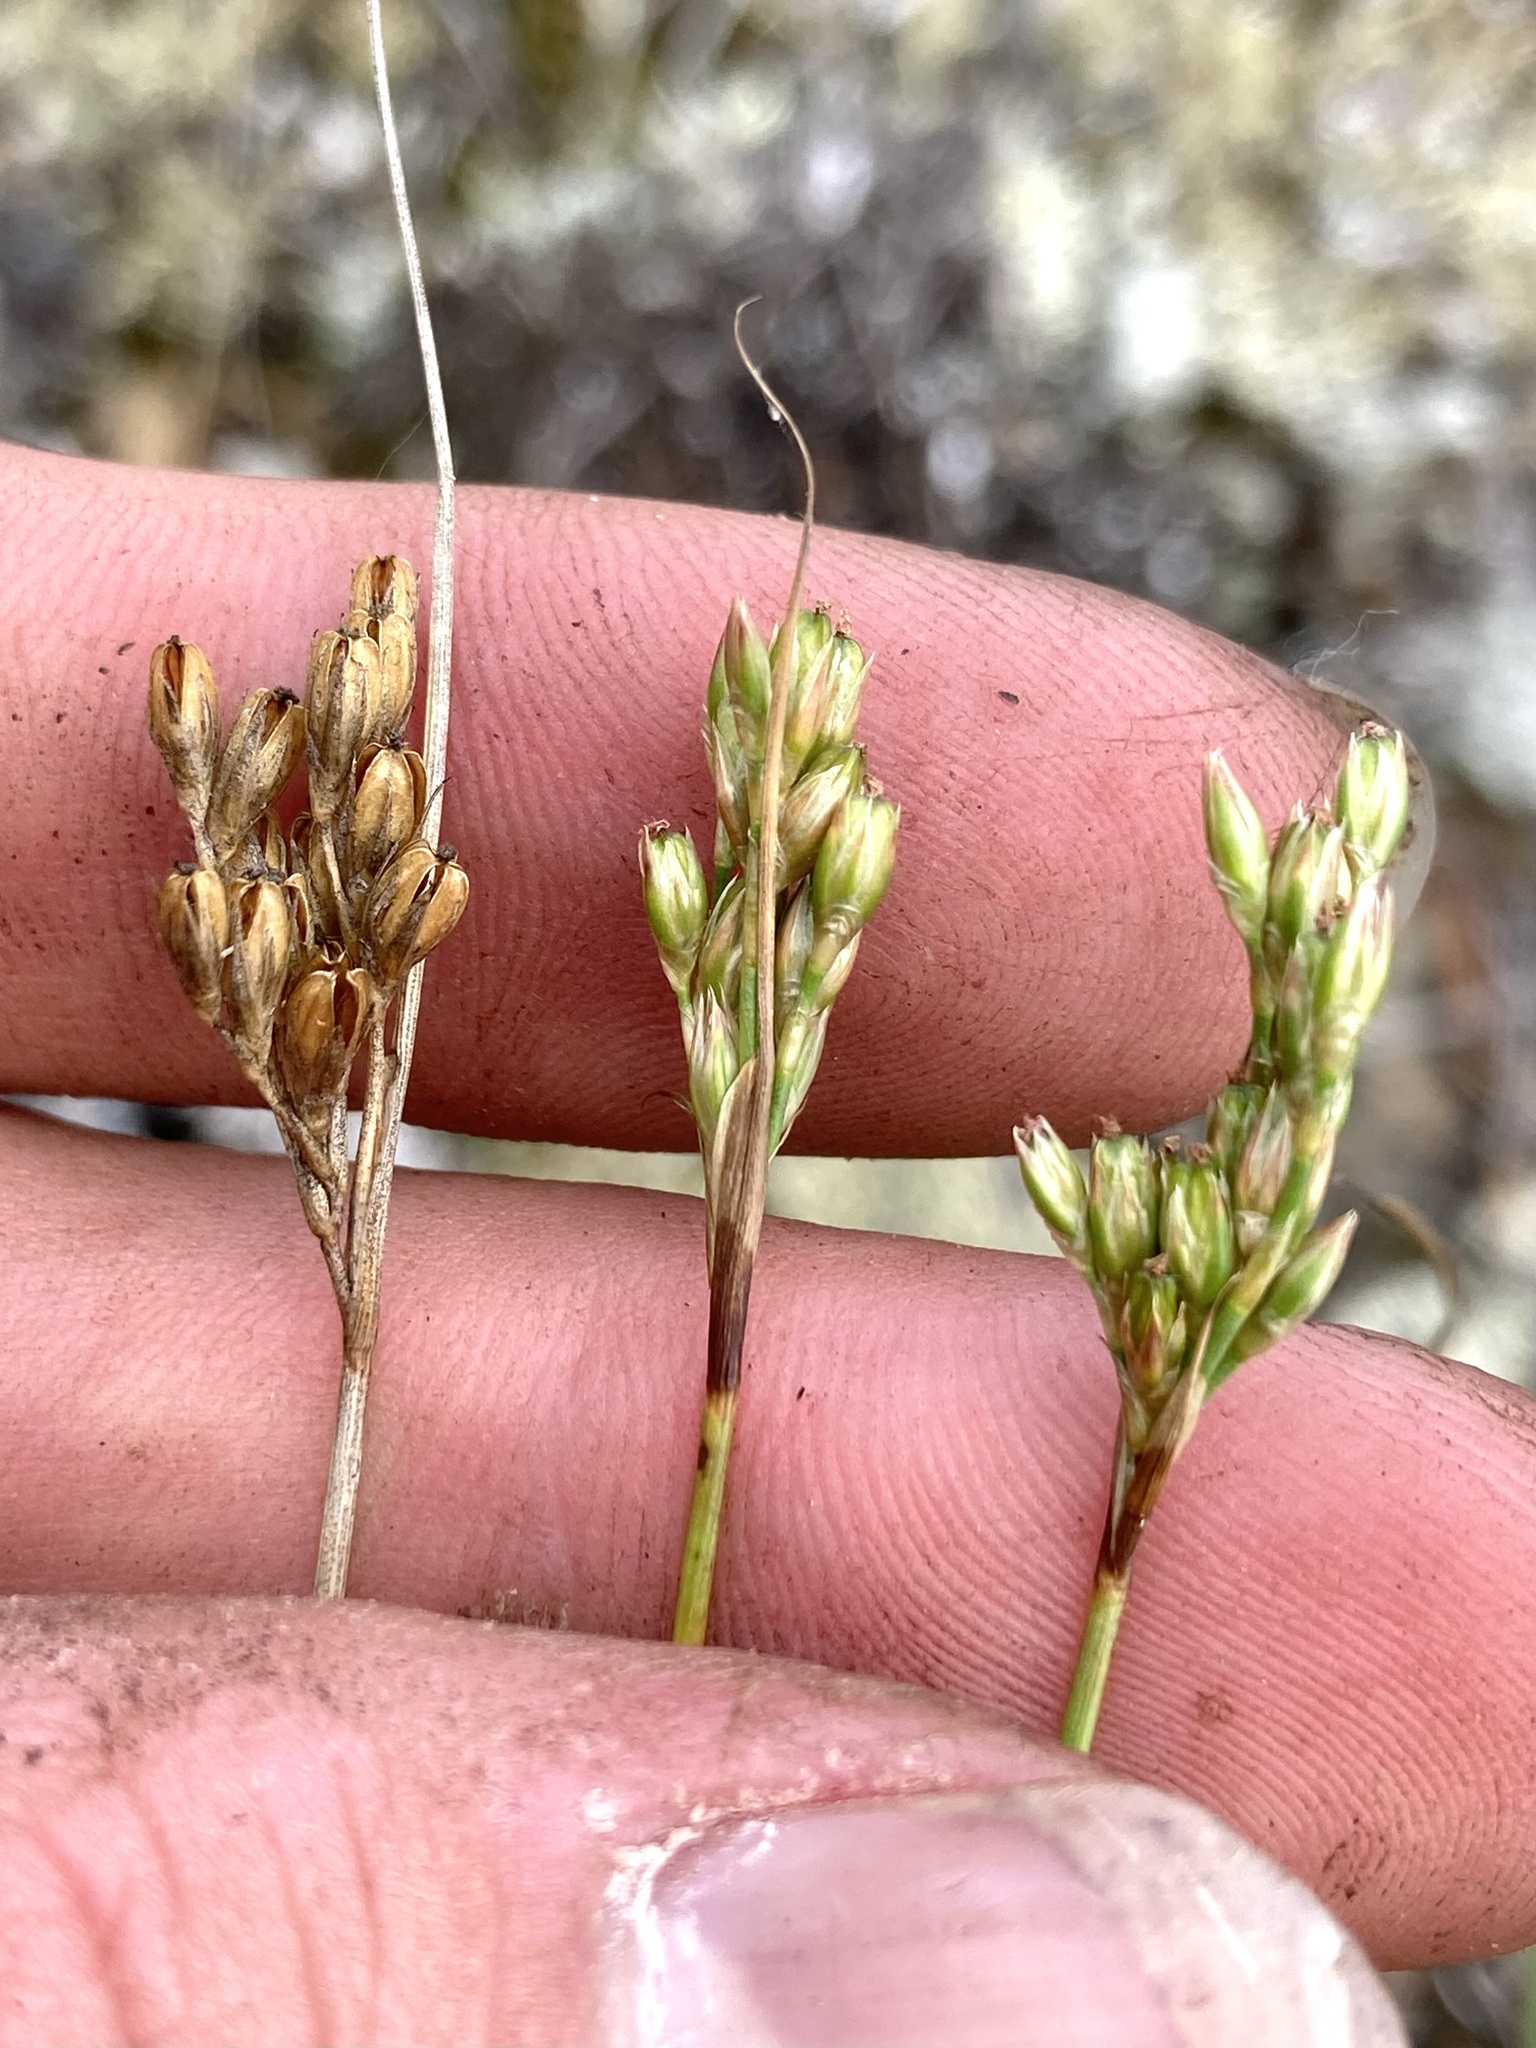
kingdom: Plantae
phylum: Tracheophyta
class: Liliopsida
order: Poales
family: Juncaceae
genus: Juncus
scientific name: Juncus vaseyi
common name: Big-headed rush
